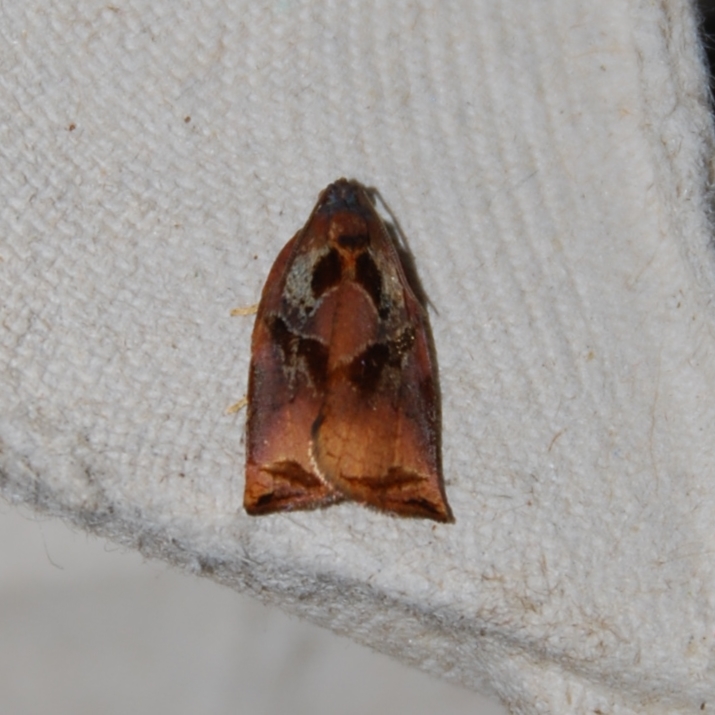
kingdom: Animalia
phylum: Arthropoda
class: Insecta
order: Lepidoptera
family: Tortricidae
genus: Archips
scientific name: Archips podana
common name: Large fruit-tree tortrix
